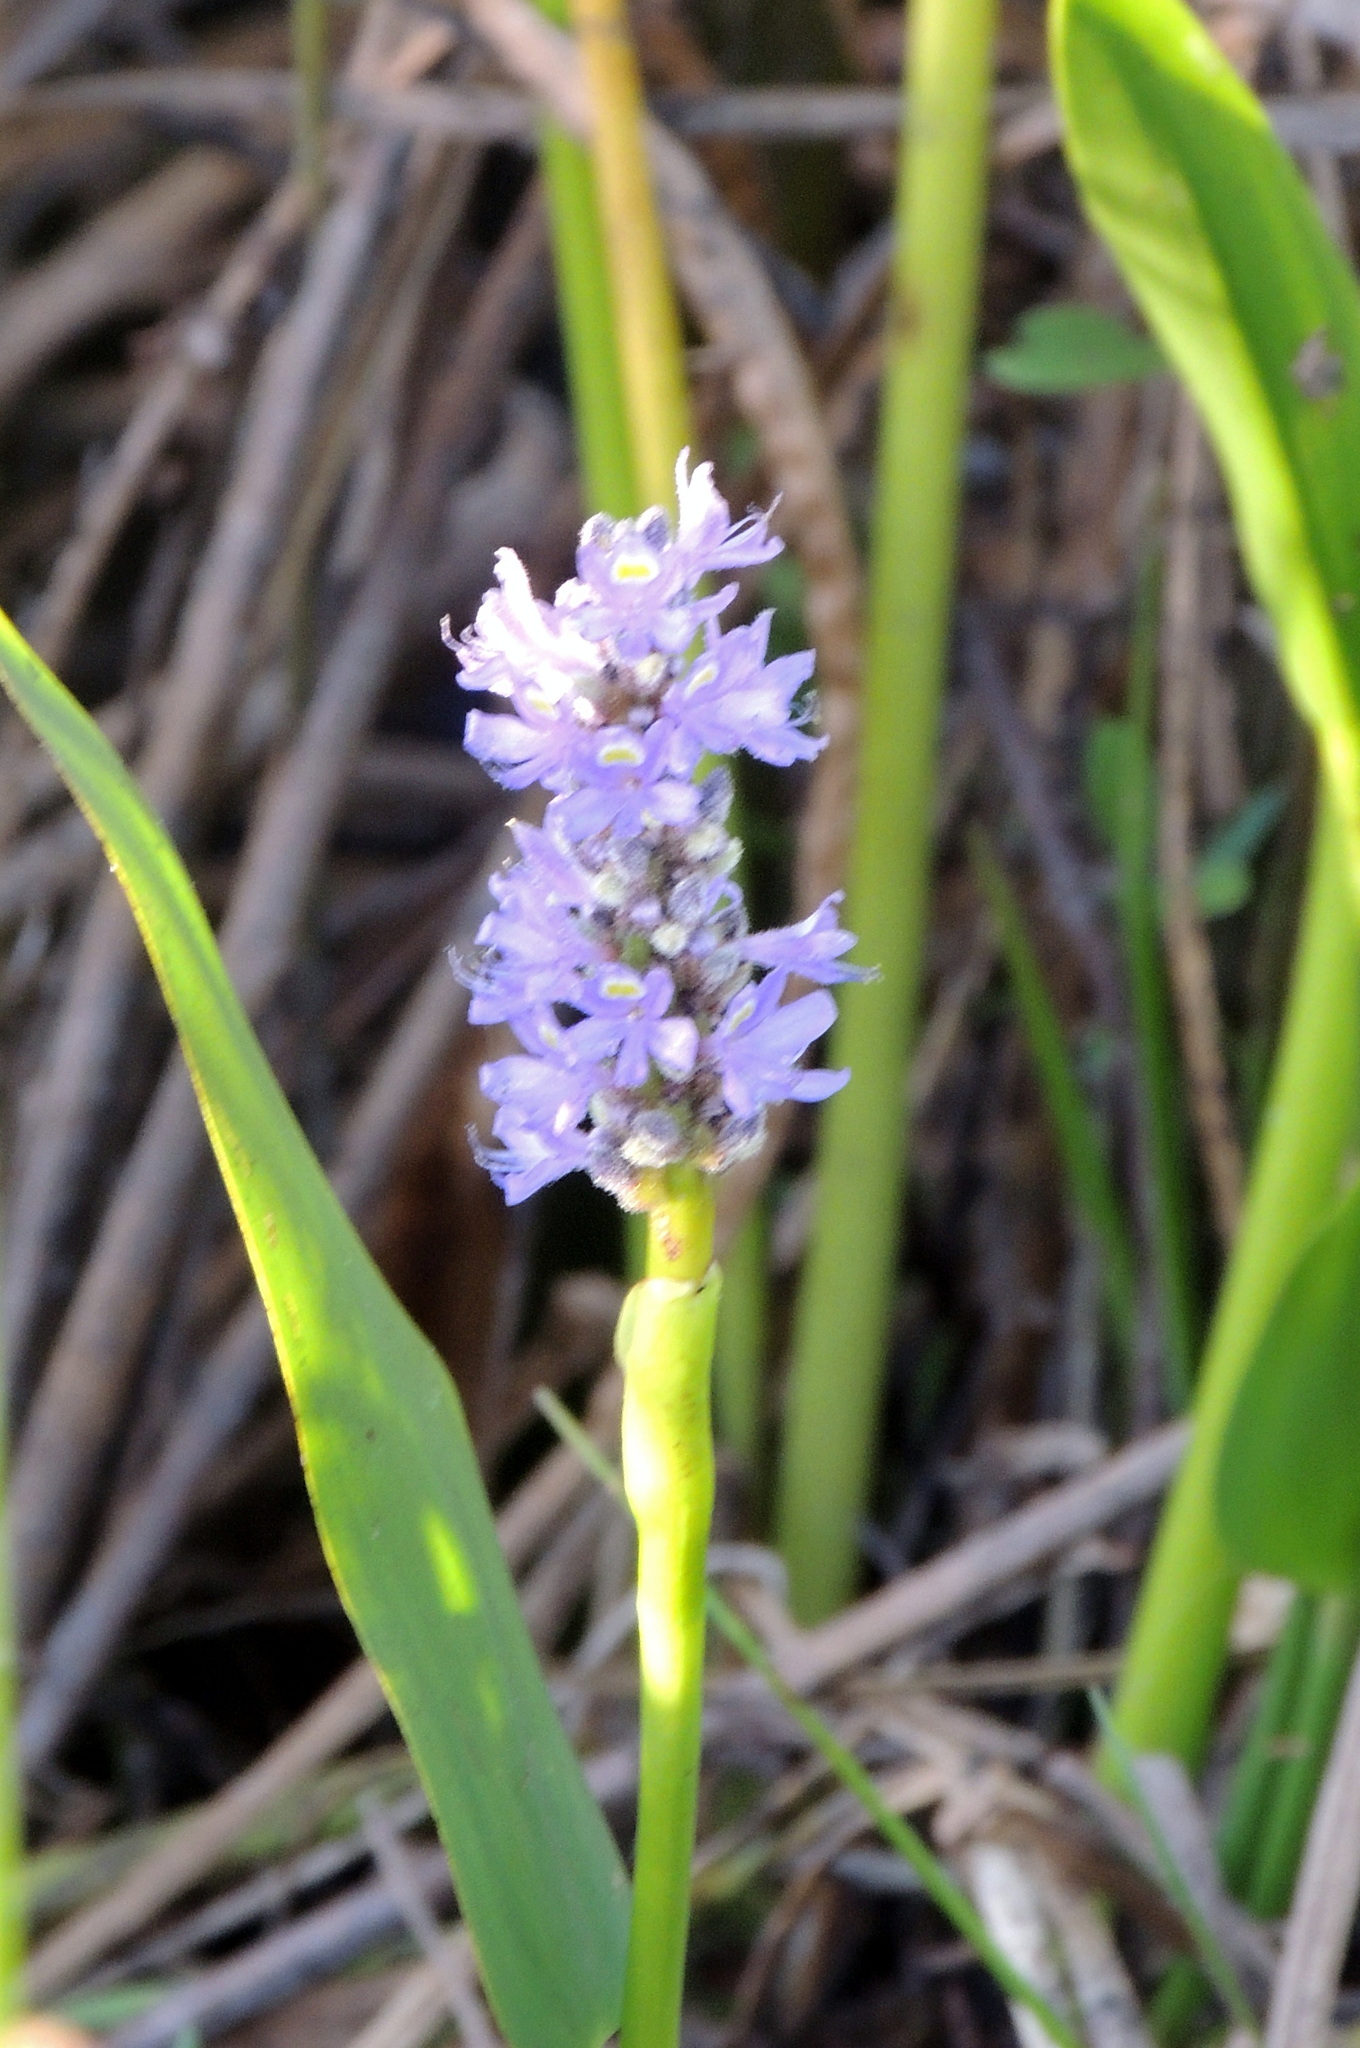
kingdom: Plantae
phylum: Tracheophyta
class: Liliopsida
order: Commelinales
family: Pontederiaceae
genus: Pontederia
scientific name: Pontederia cordata
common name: Pickerelweed
